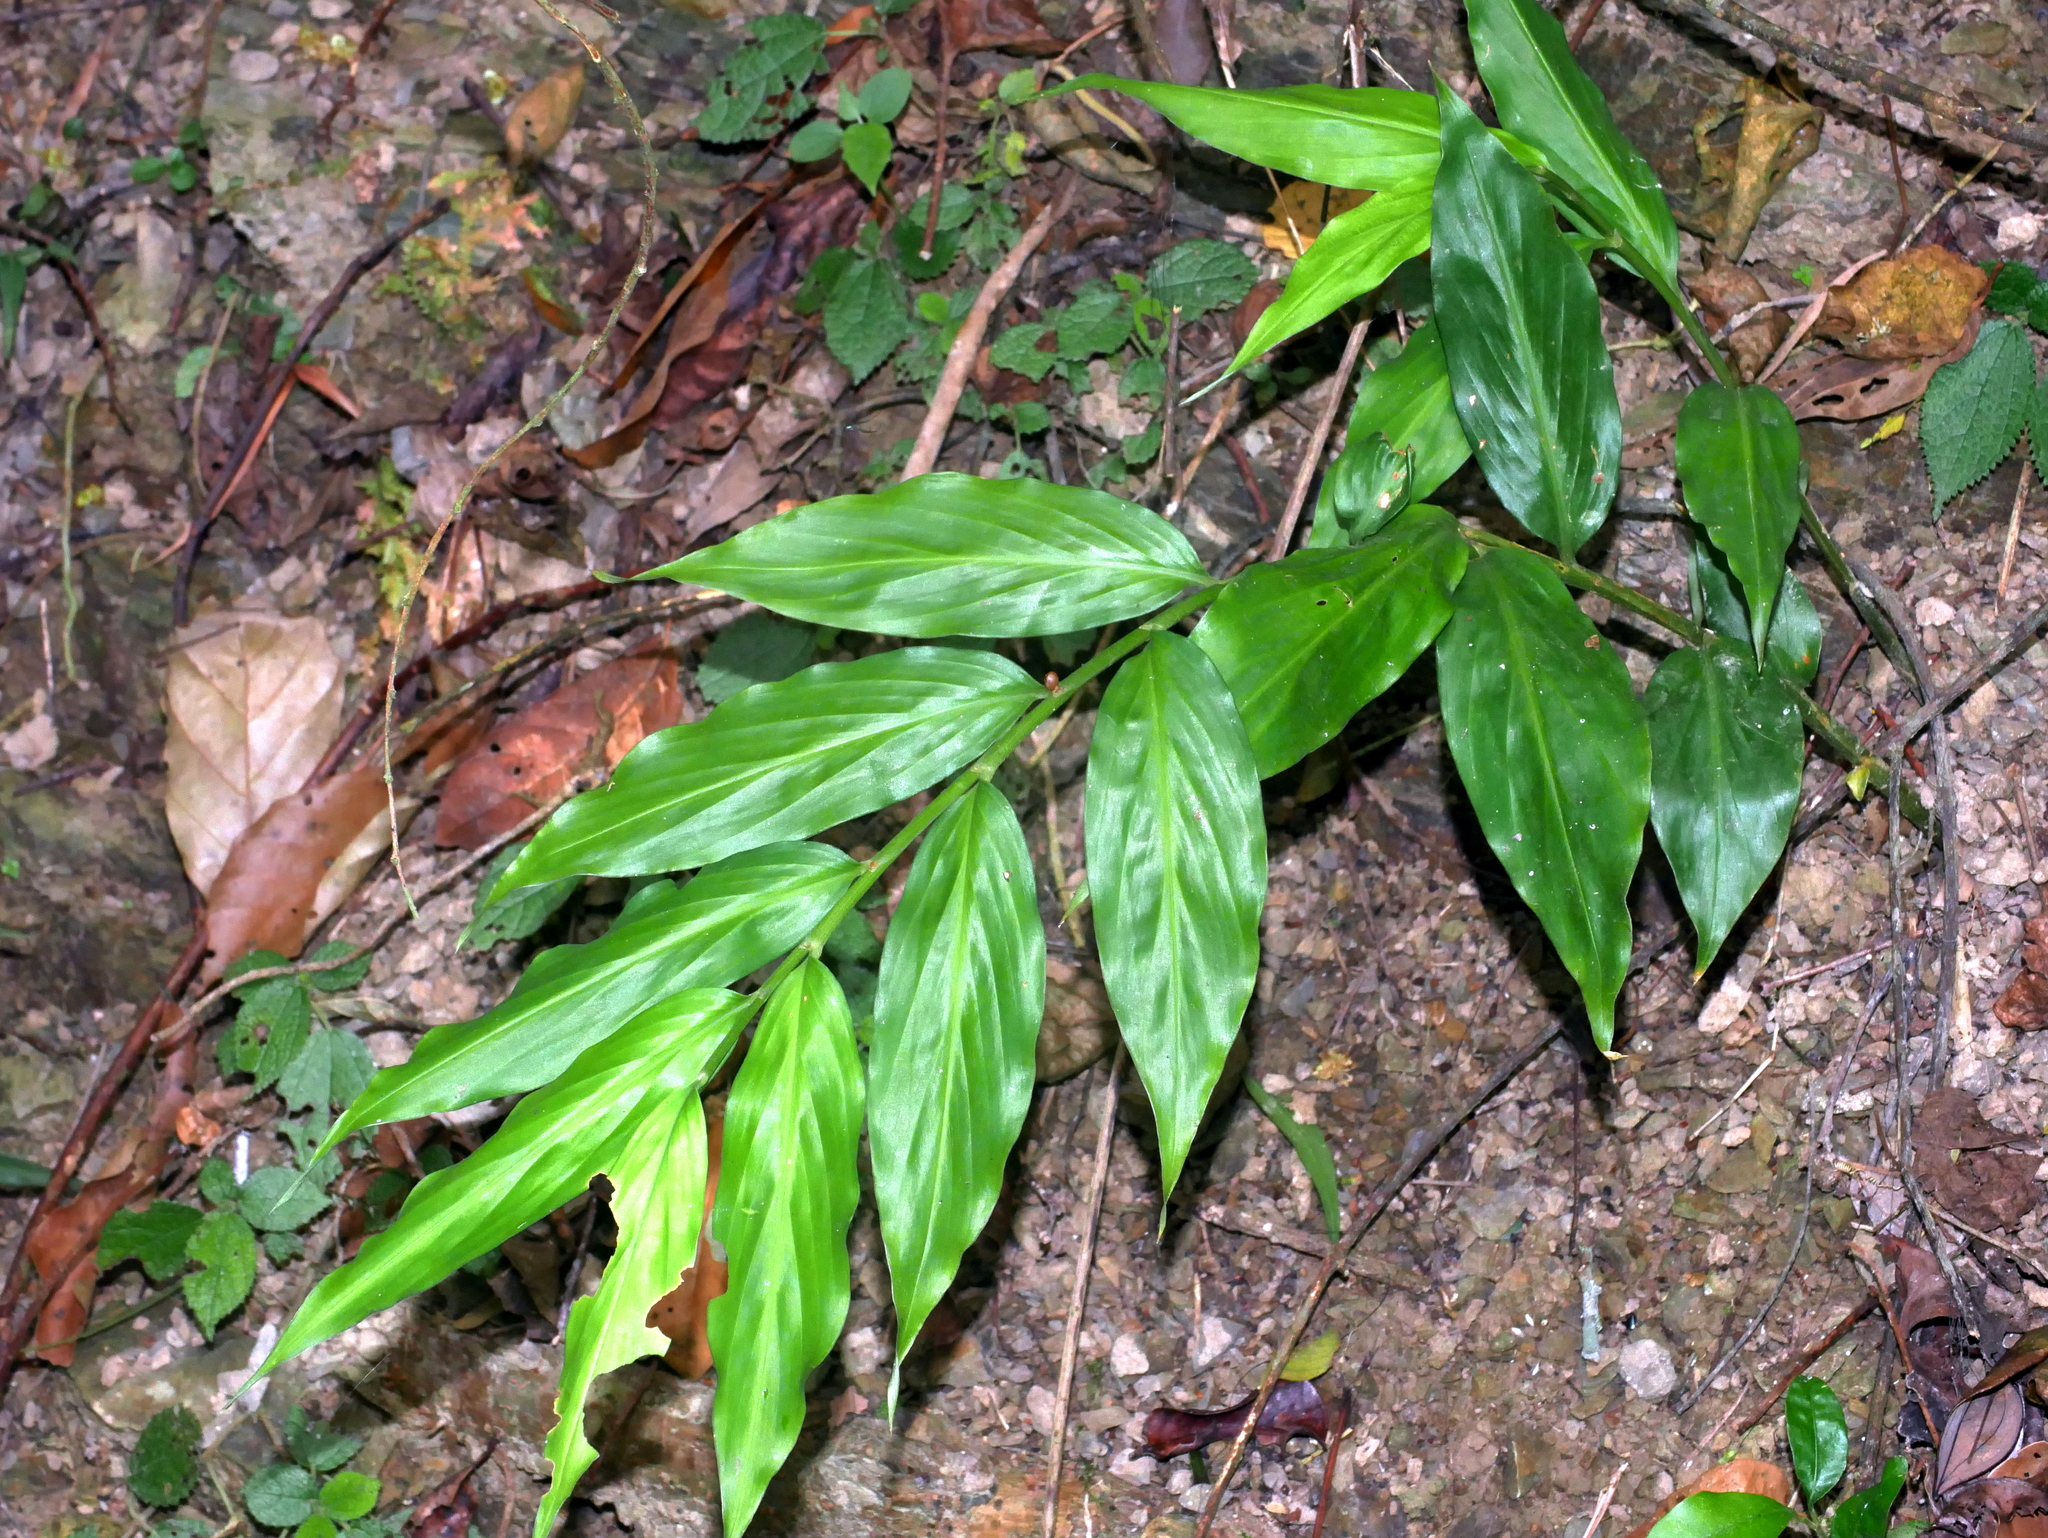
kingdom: Plantae
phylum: Tracheophyta
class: Liliopsida
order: Zingiberales
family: Zingiberaceae
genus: Zingiber
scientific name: Zingiber shuanglongensis
